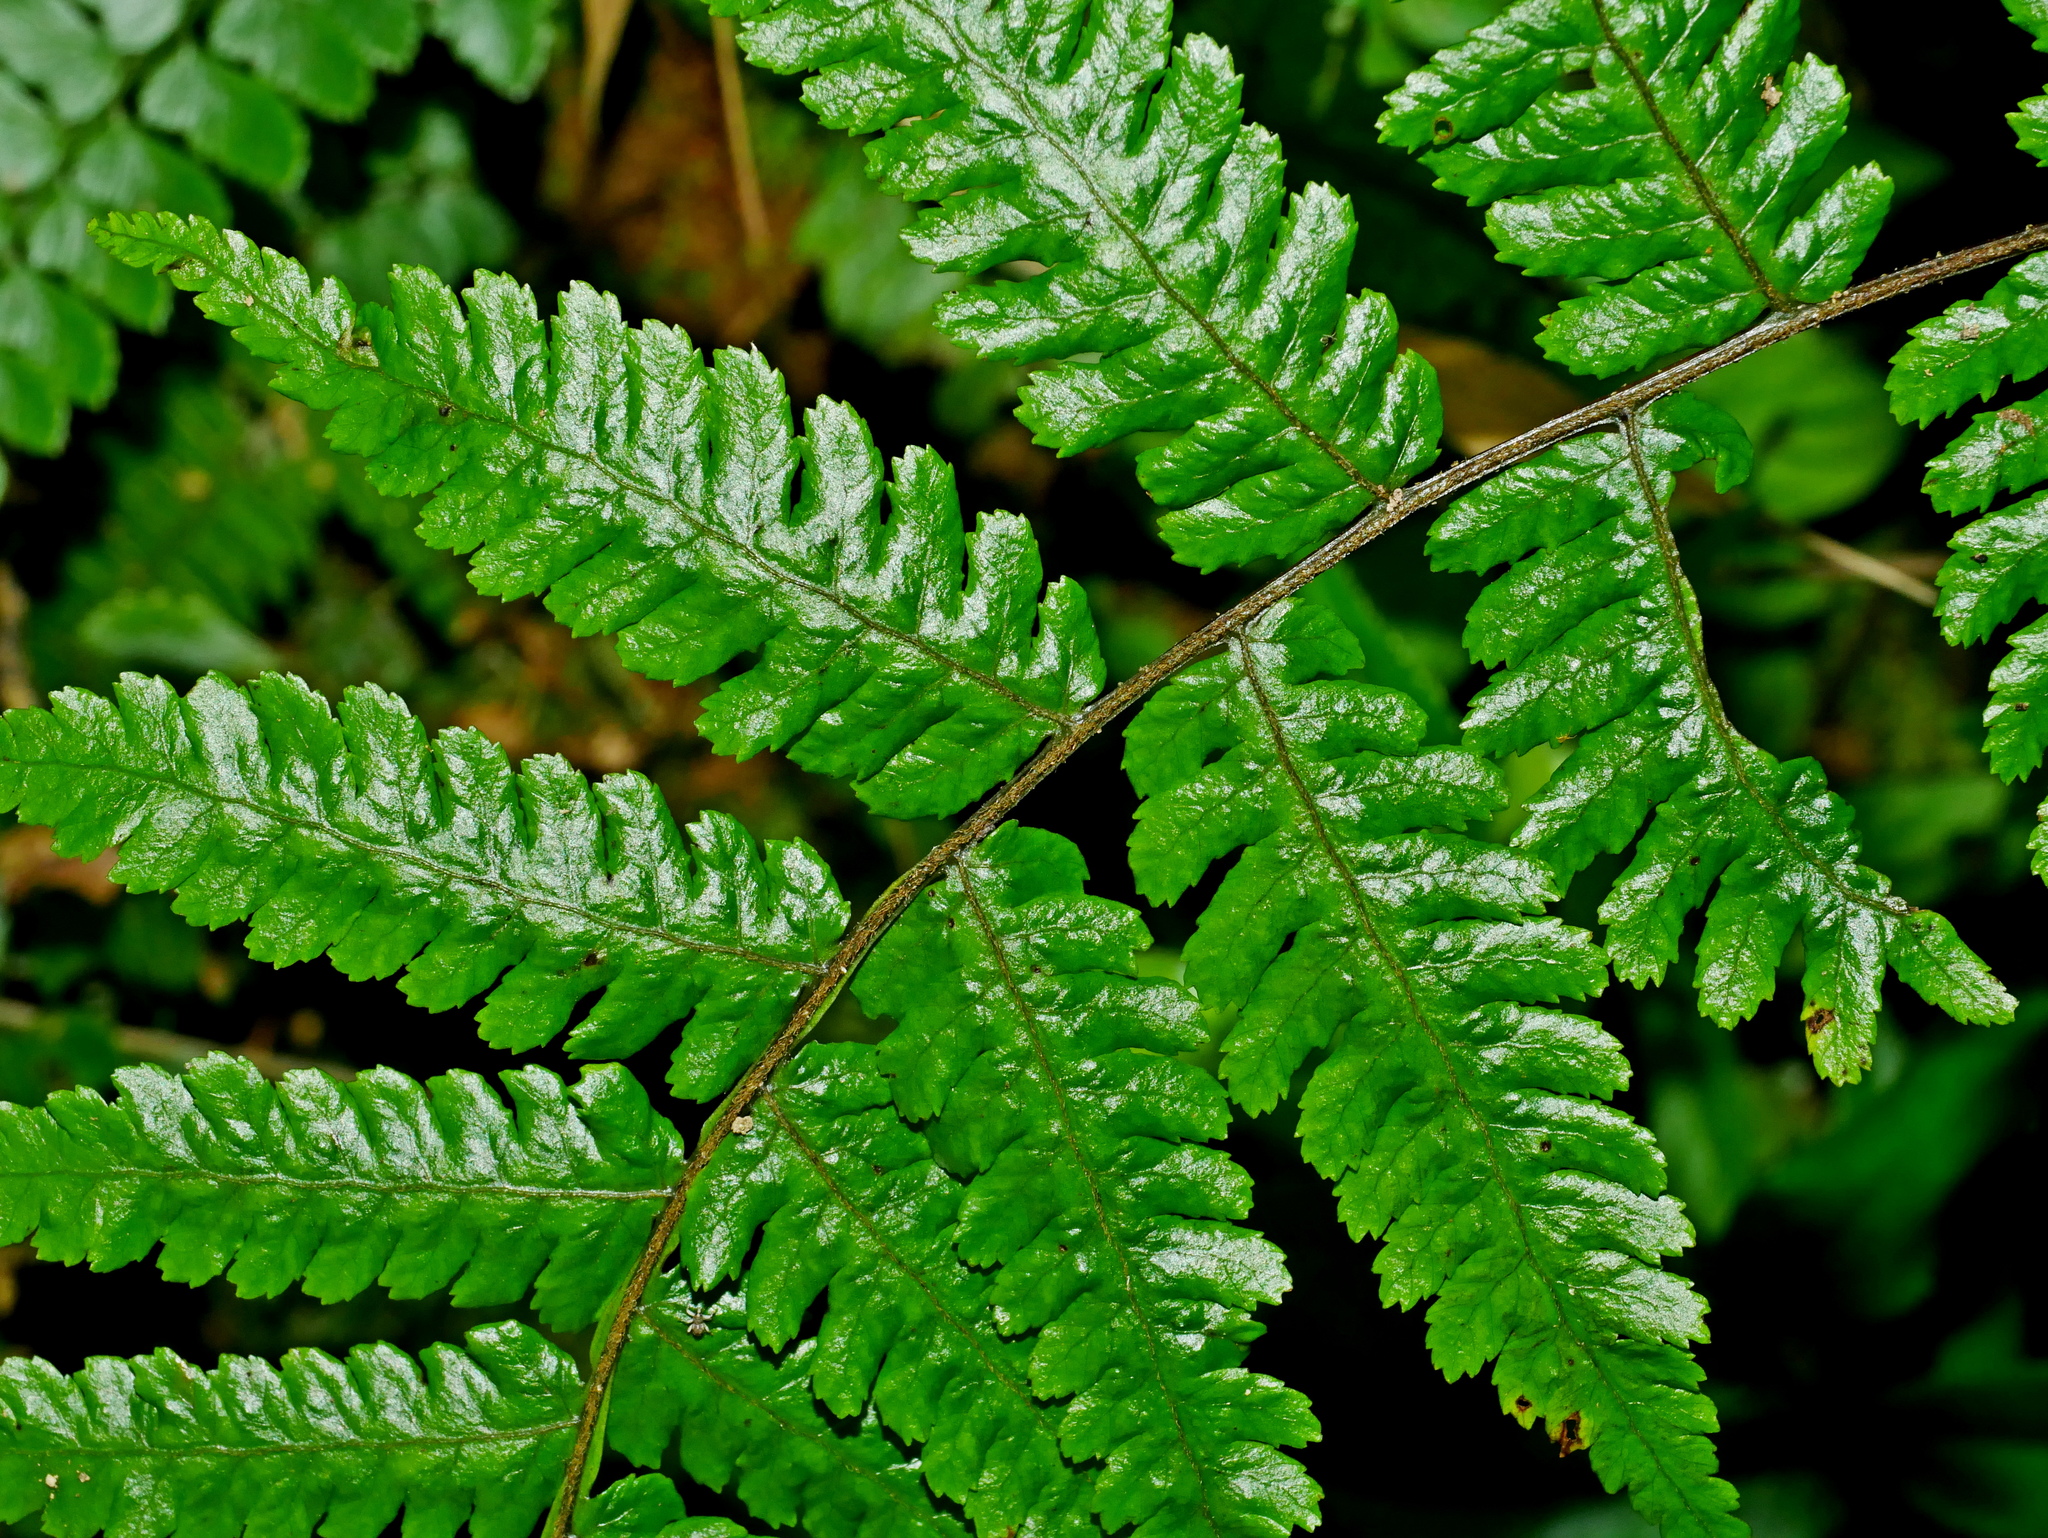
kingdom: Plantae
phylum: Tracheophyta
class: Polypodiopsida
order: Cyatheales
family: Cyatheaceae
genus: Gymnosphaera
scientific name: Gymnosphaera denticulata
